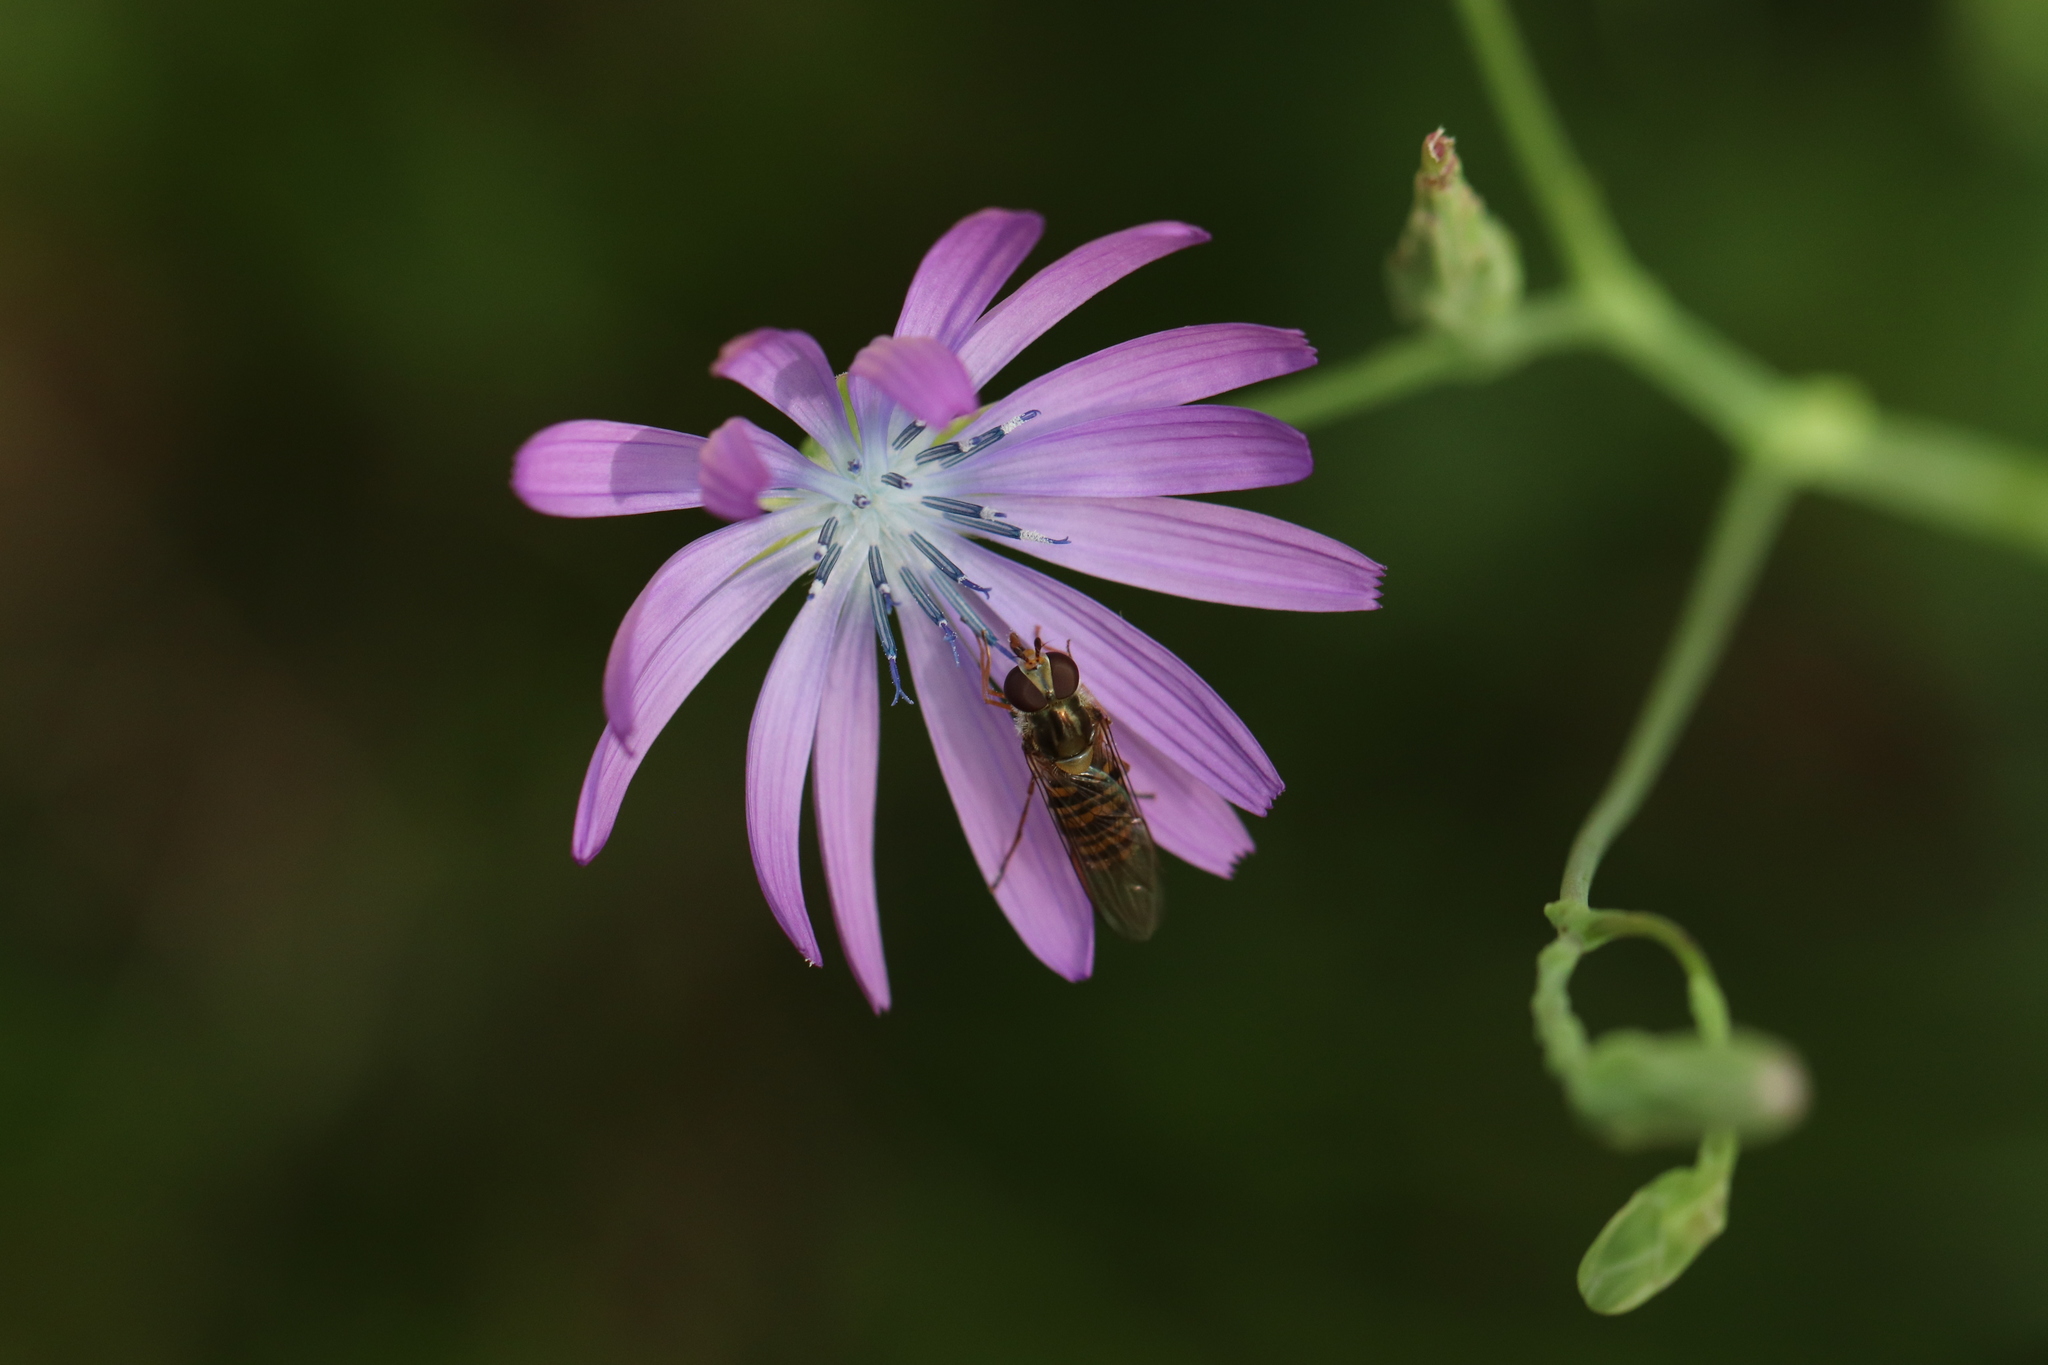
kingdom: Animalia
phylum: Arthropoda
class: Insecta
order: Diptera
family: Syrphidae
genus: Episyrphus
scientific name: Episyrphus balteatus
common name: Marmalade hoverfly
